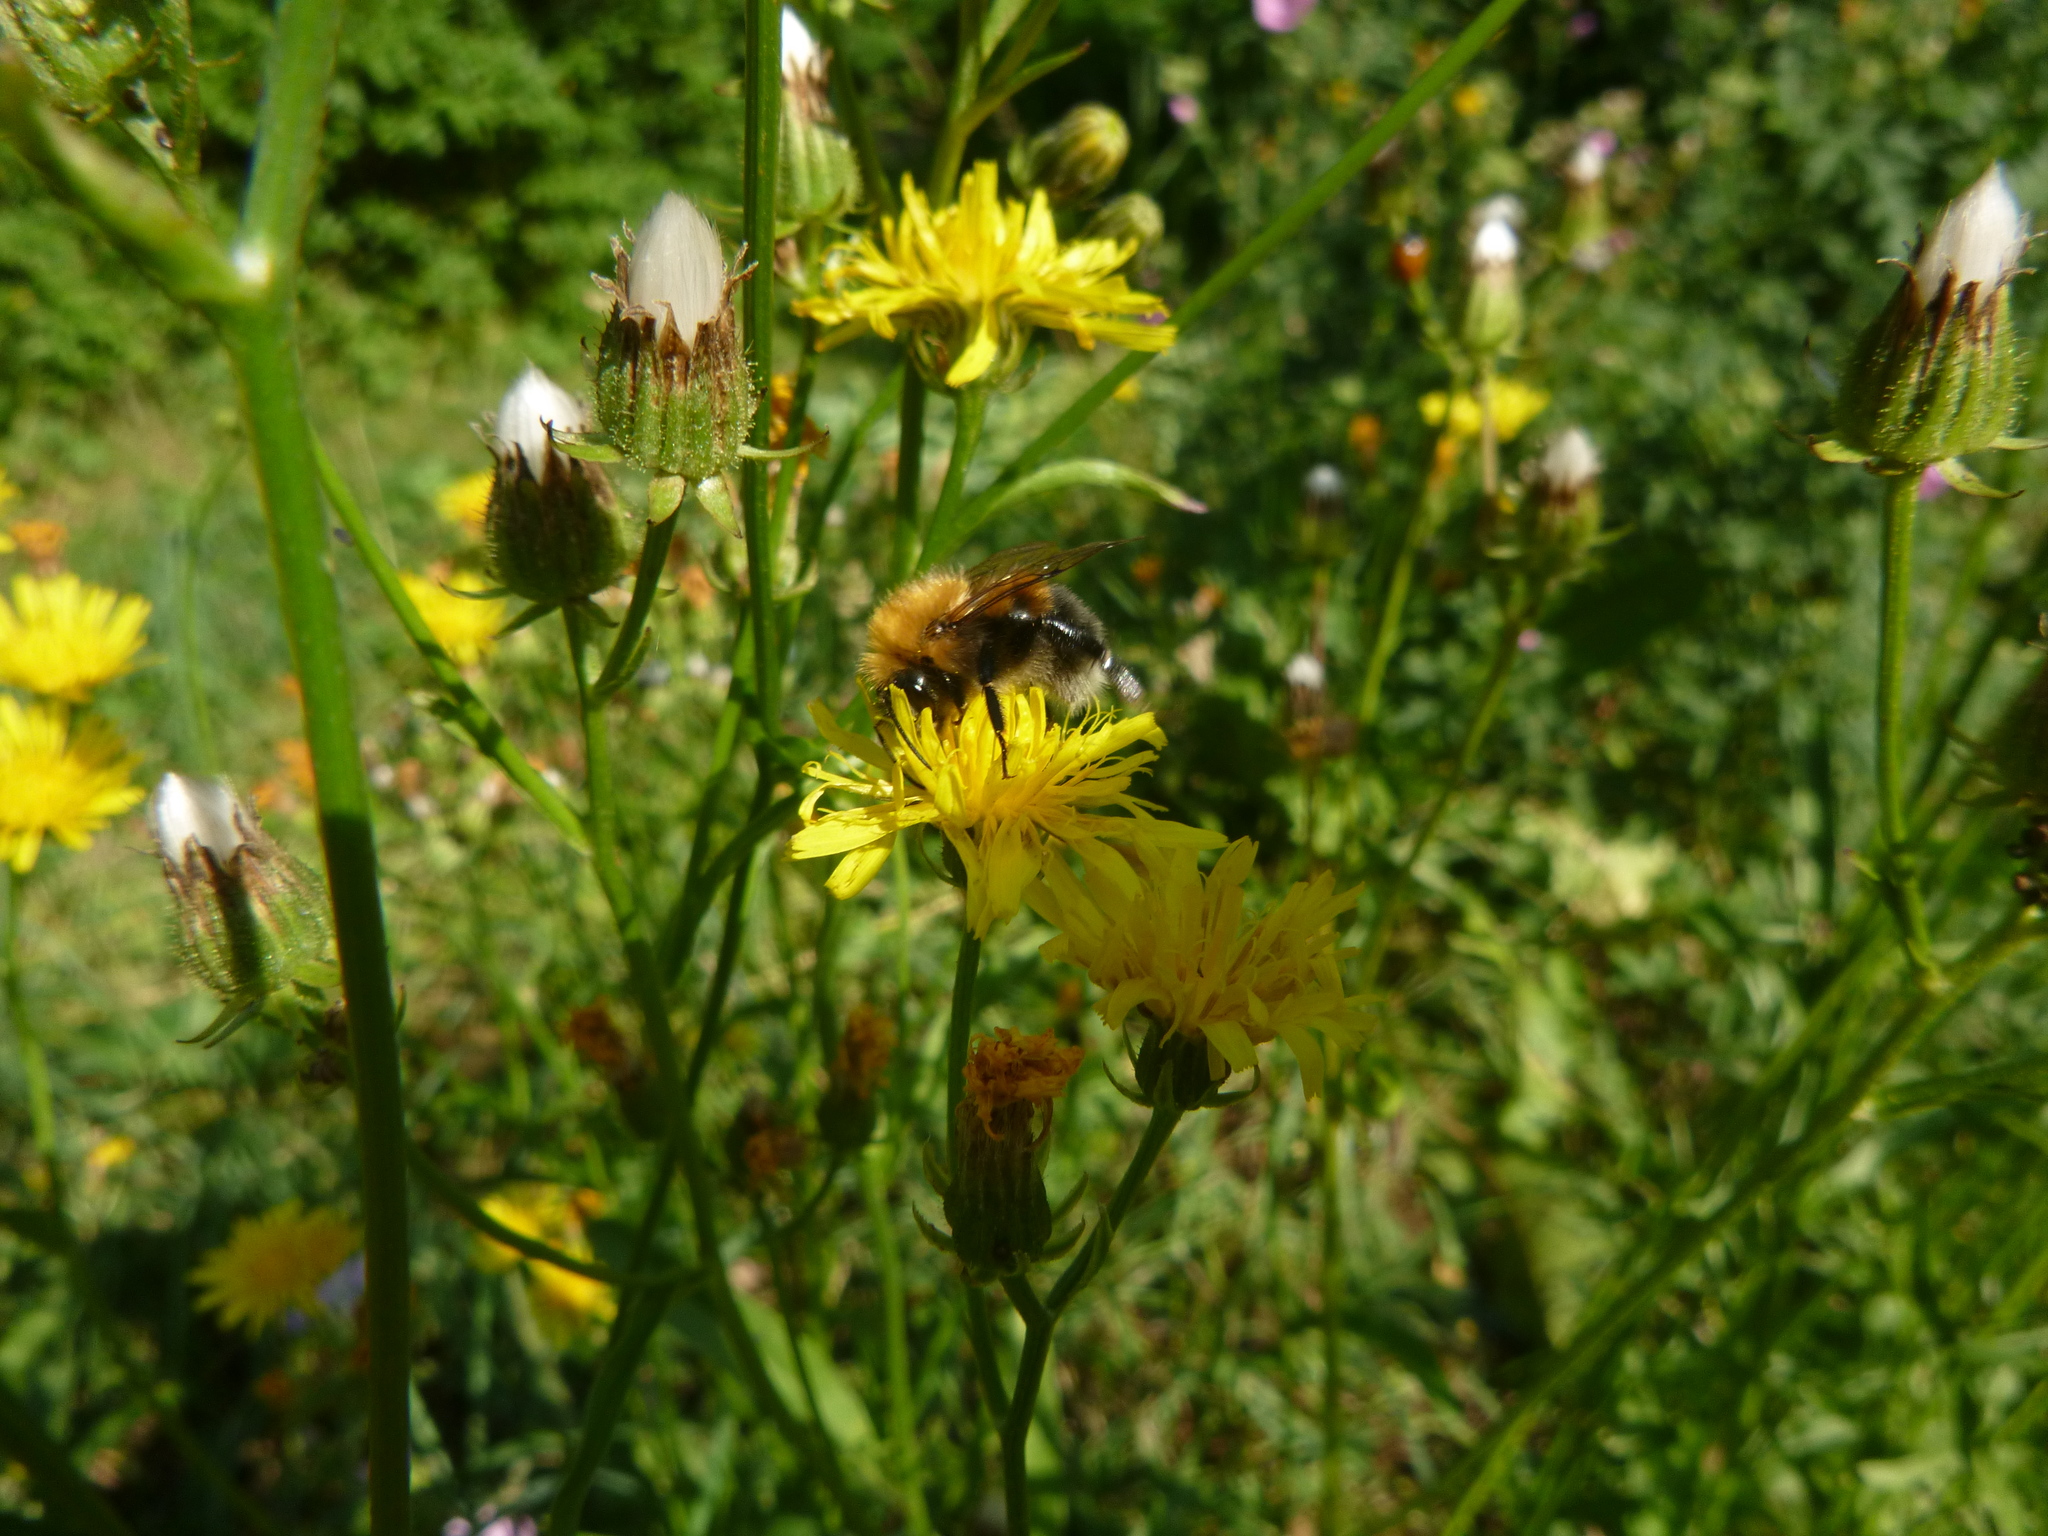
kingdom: Animalia
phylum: Arthropoda
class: Insecta
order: Hymenoptera
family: Apidae
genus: Bombus
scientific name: Bombus hypnorum
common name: New garden bumblebee
